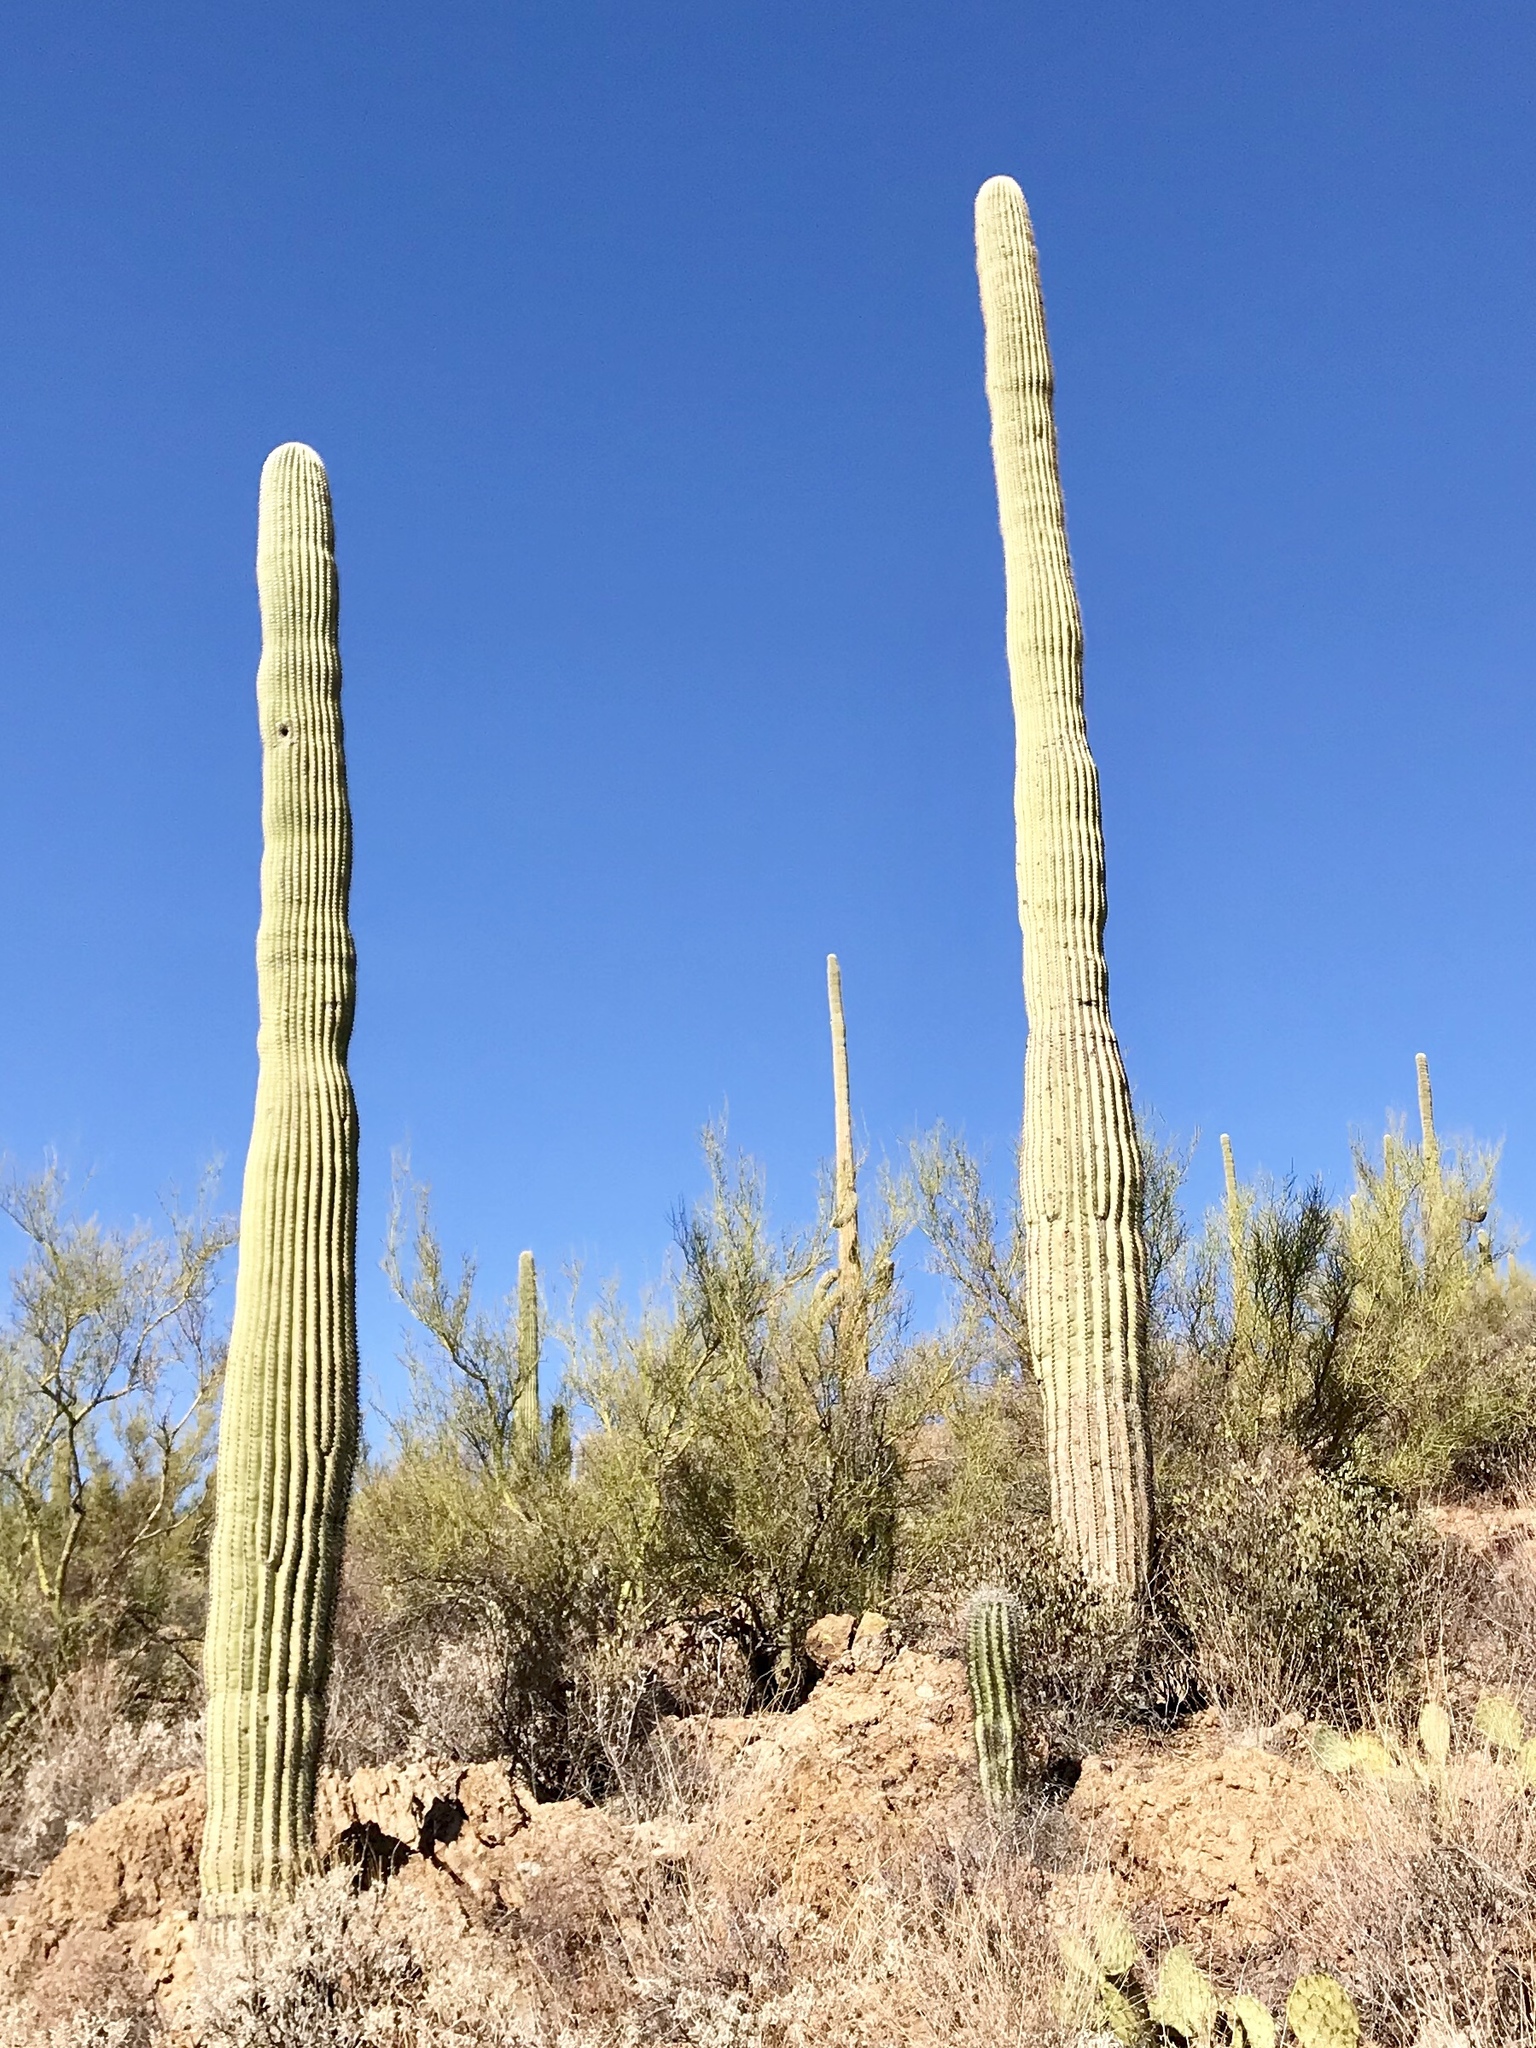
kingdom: Plantae
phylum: Tracheophyta
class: Magnoliopsida
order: Caryophyllales
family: Cactaceae
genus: Carnegiea
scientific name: Carnegiea gigantea
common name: Saguaro
